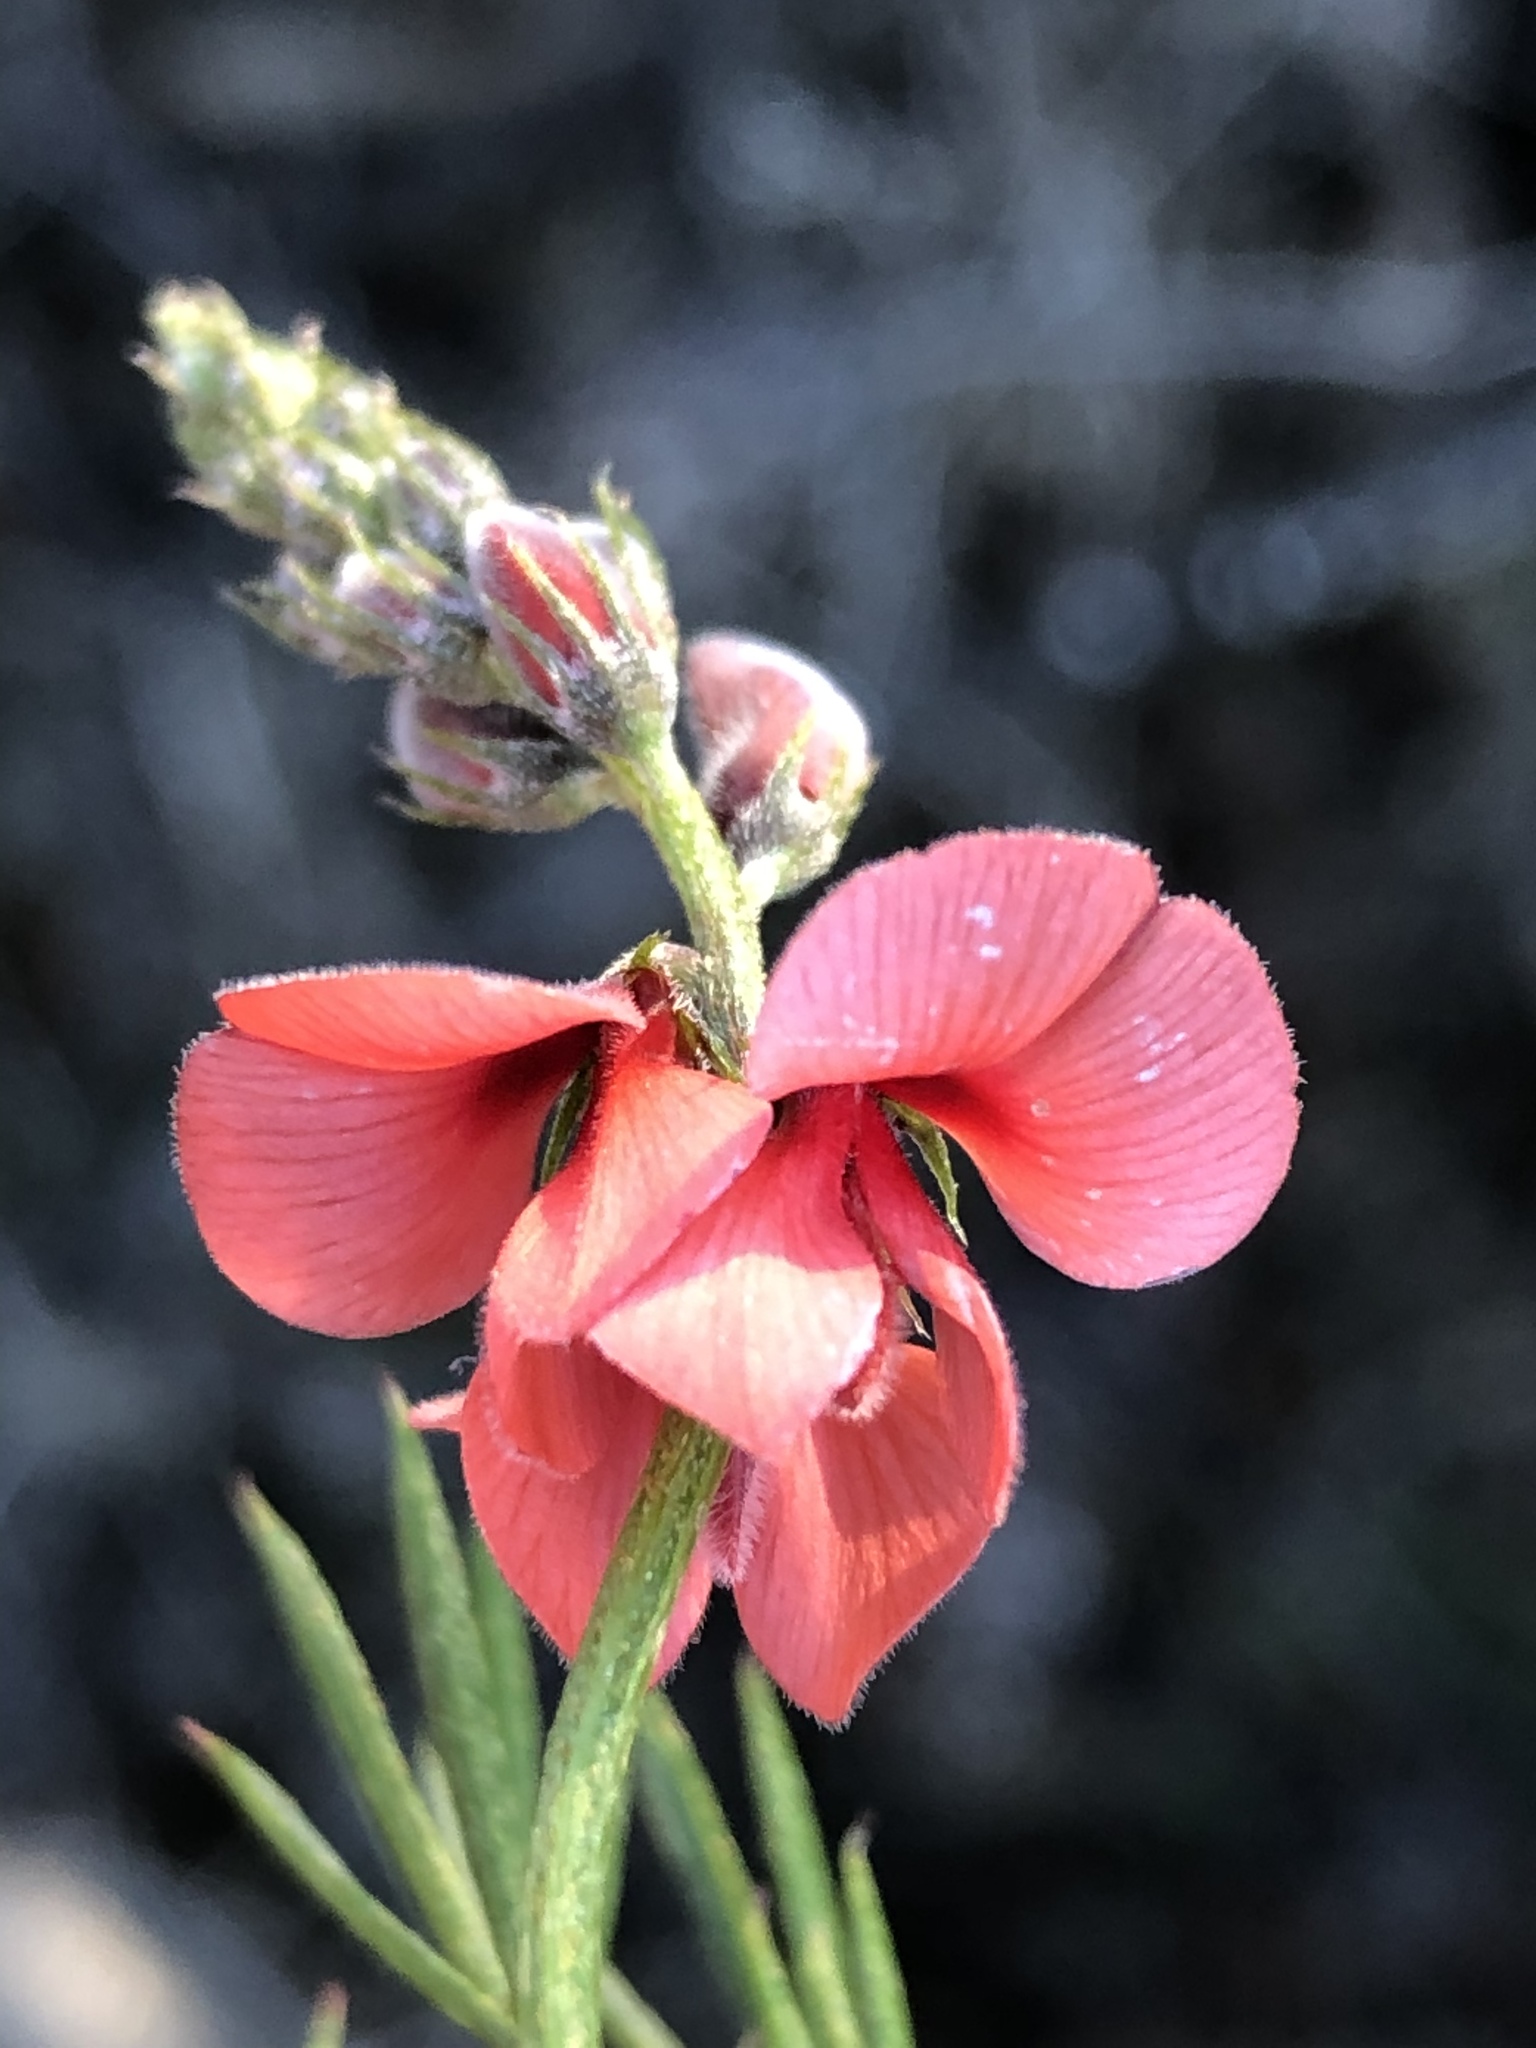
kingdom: Plantae
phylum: Tracheophyta
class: Magnoliopsida
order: Fabales
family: Fabaceae
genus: Indigofera
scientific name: Indigofera heterophylla
